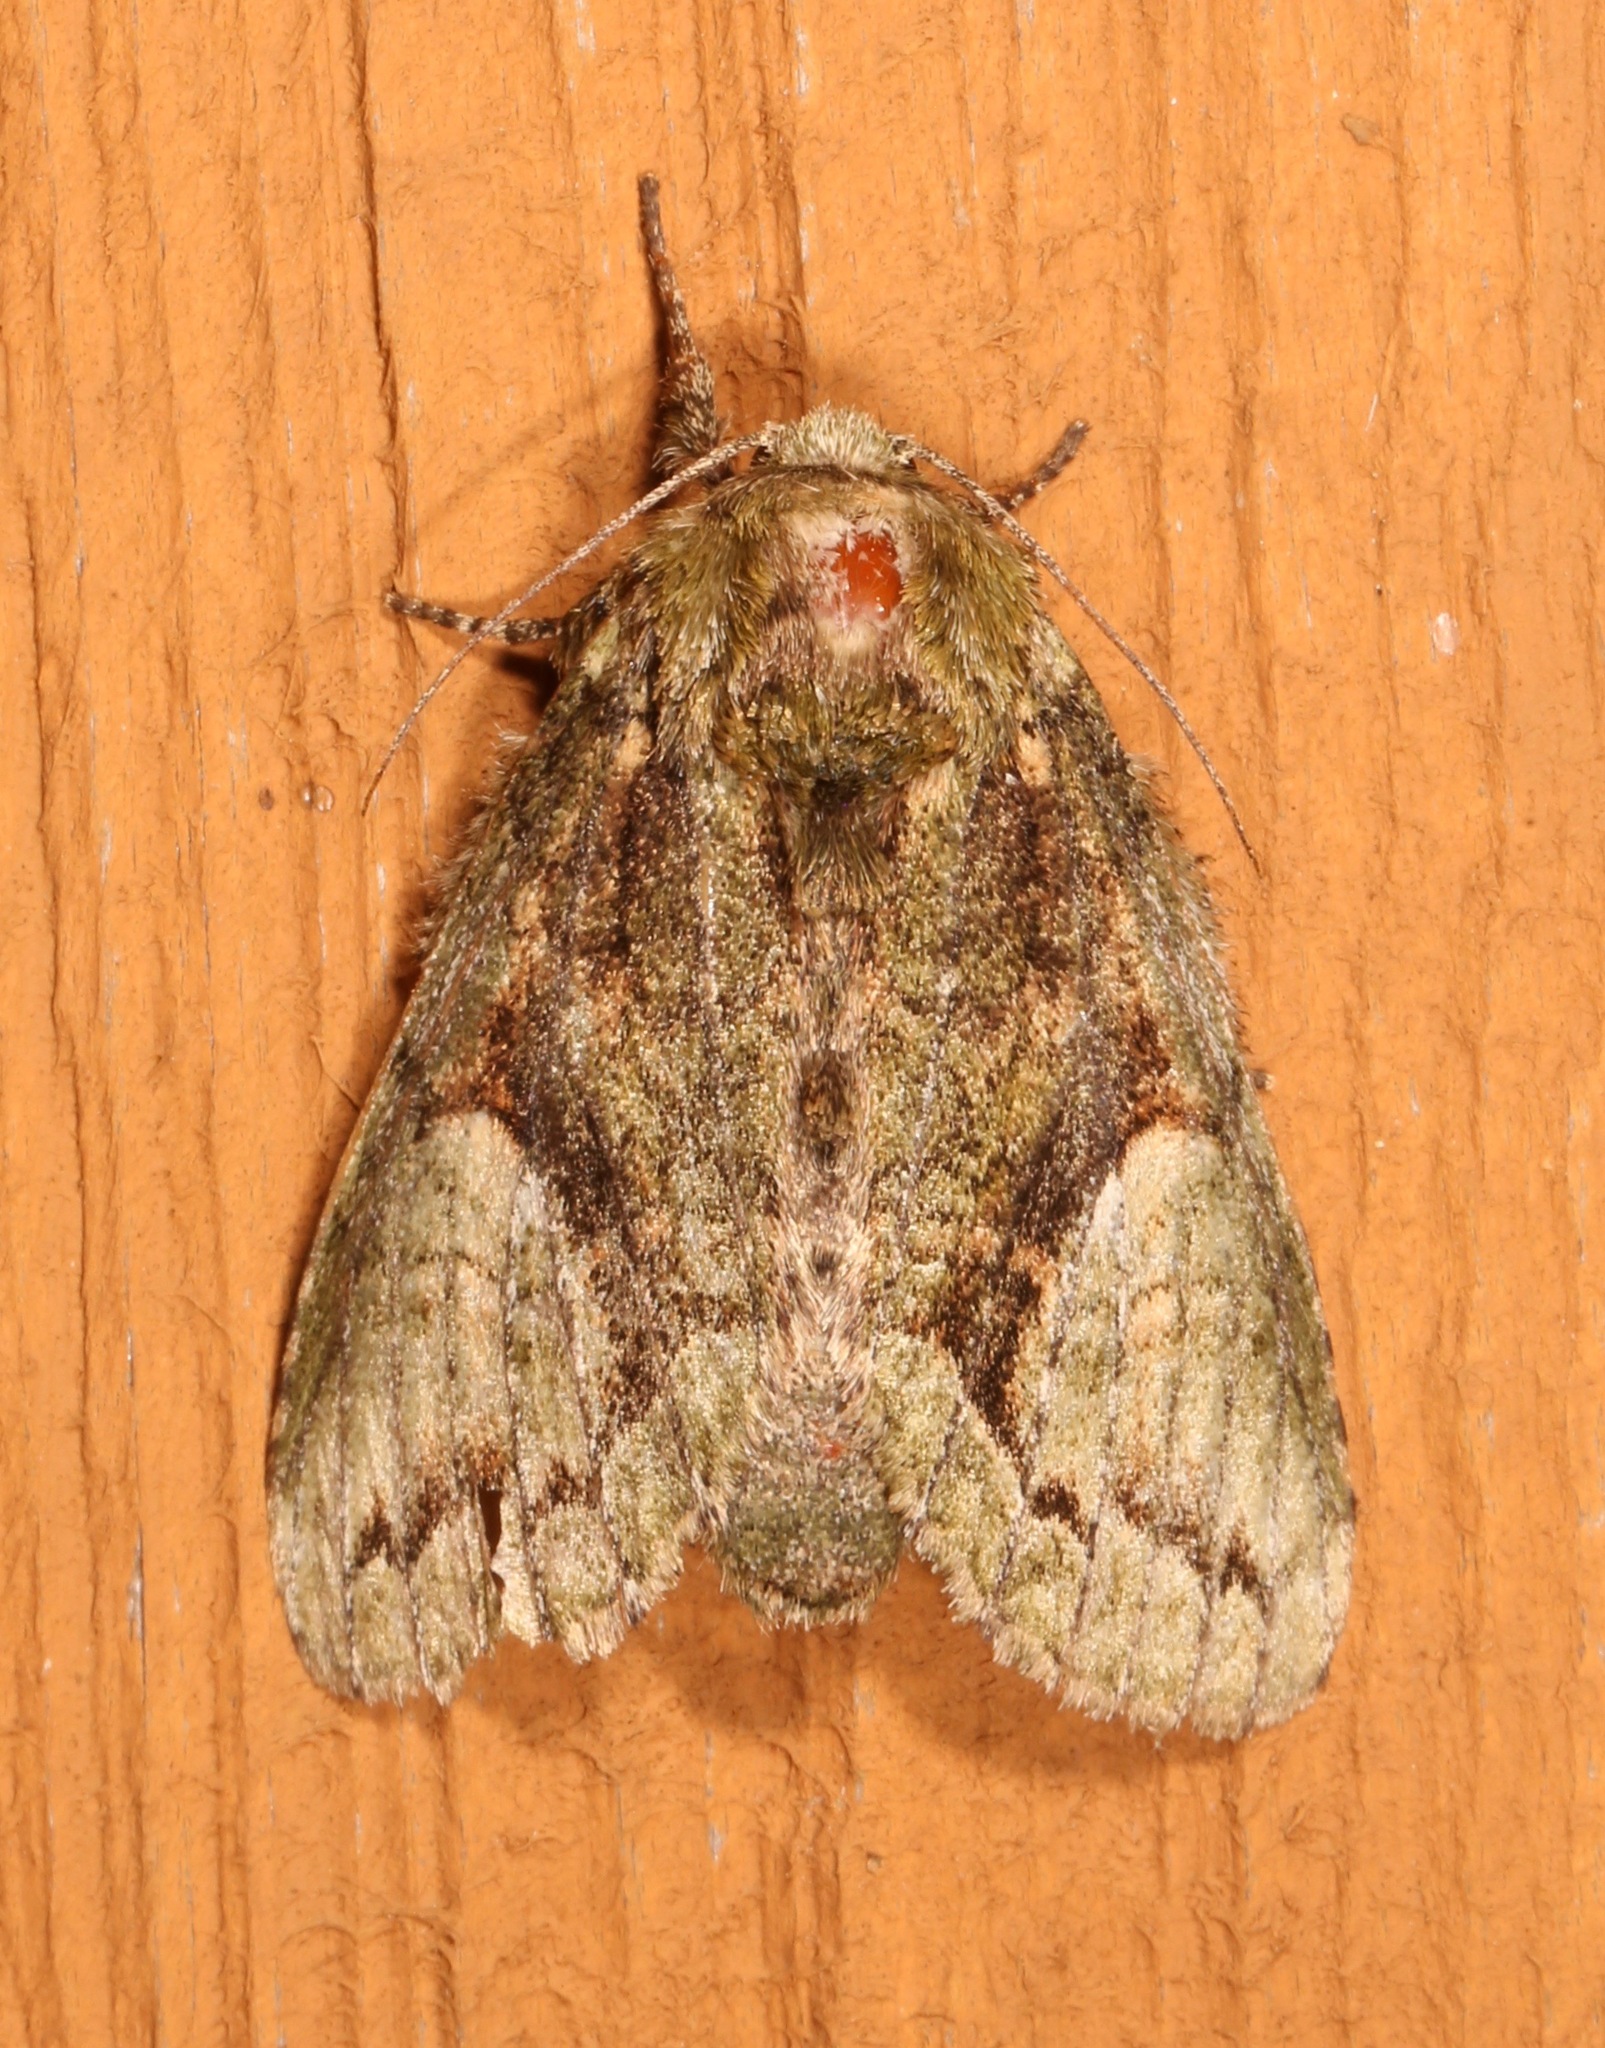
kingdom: Animalia
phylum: Arthropoda
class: Insecta
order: Lepidoptera
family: Notodontidae
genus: Heterocampa
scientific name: Heterocampa umbrata
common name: White-blotched heterocampa
